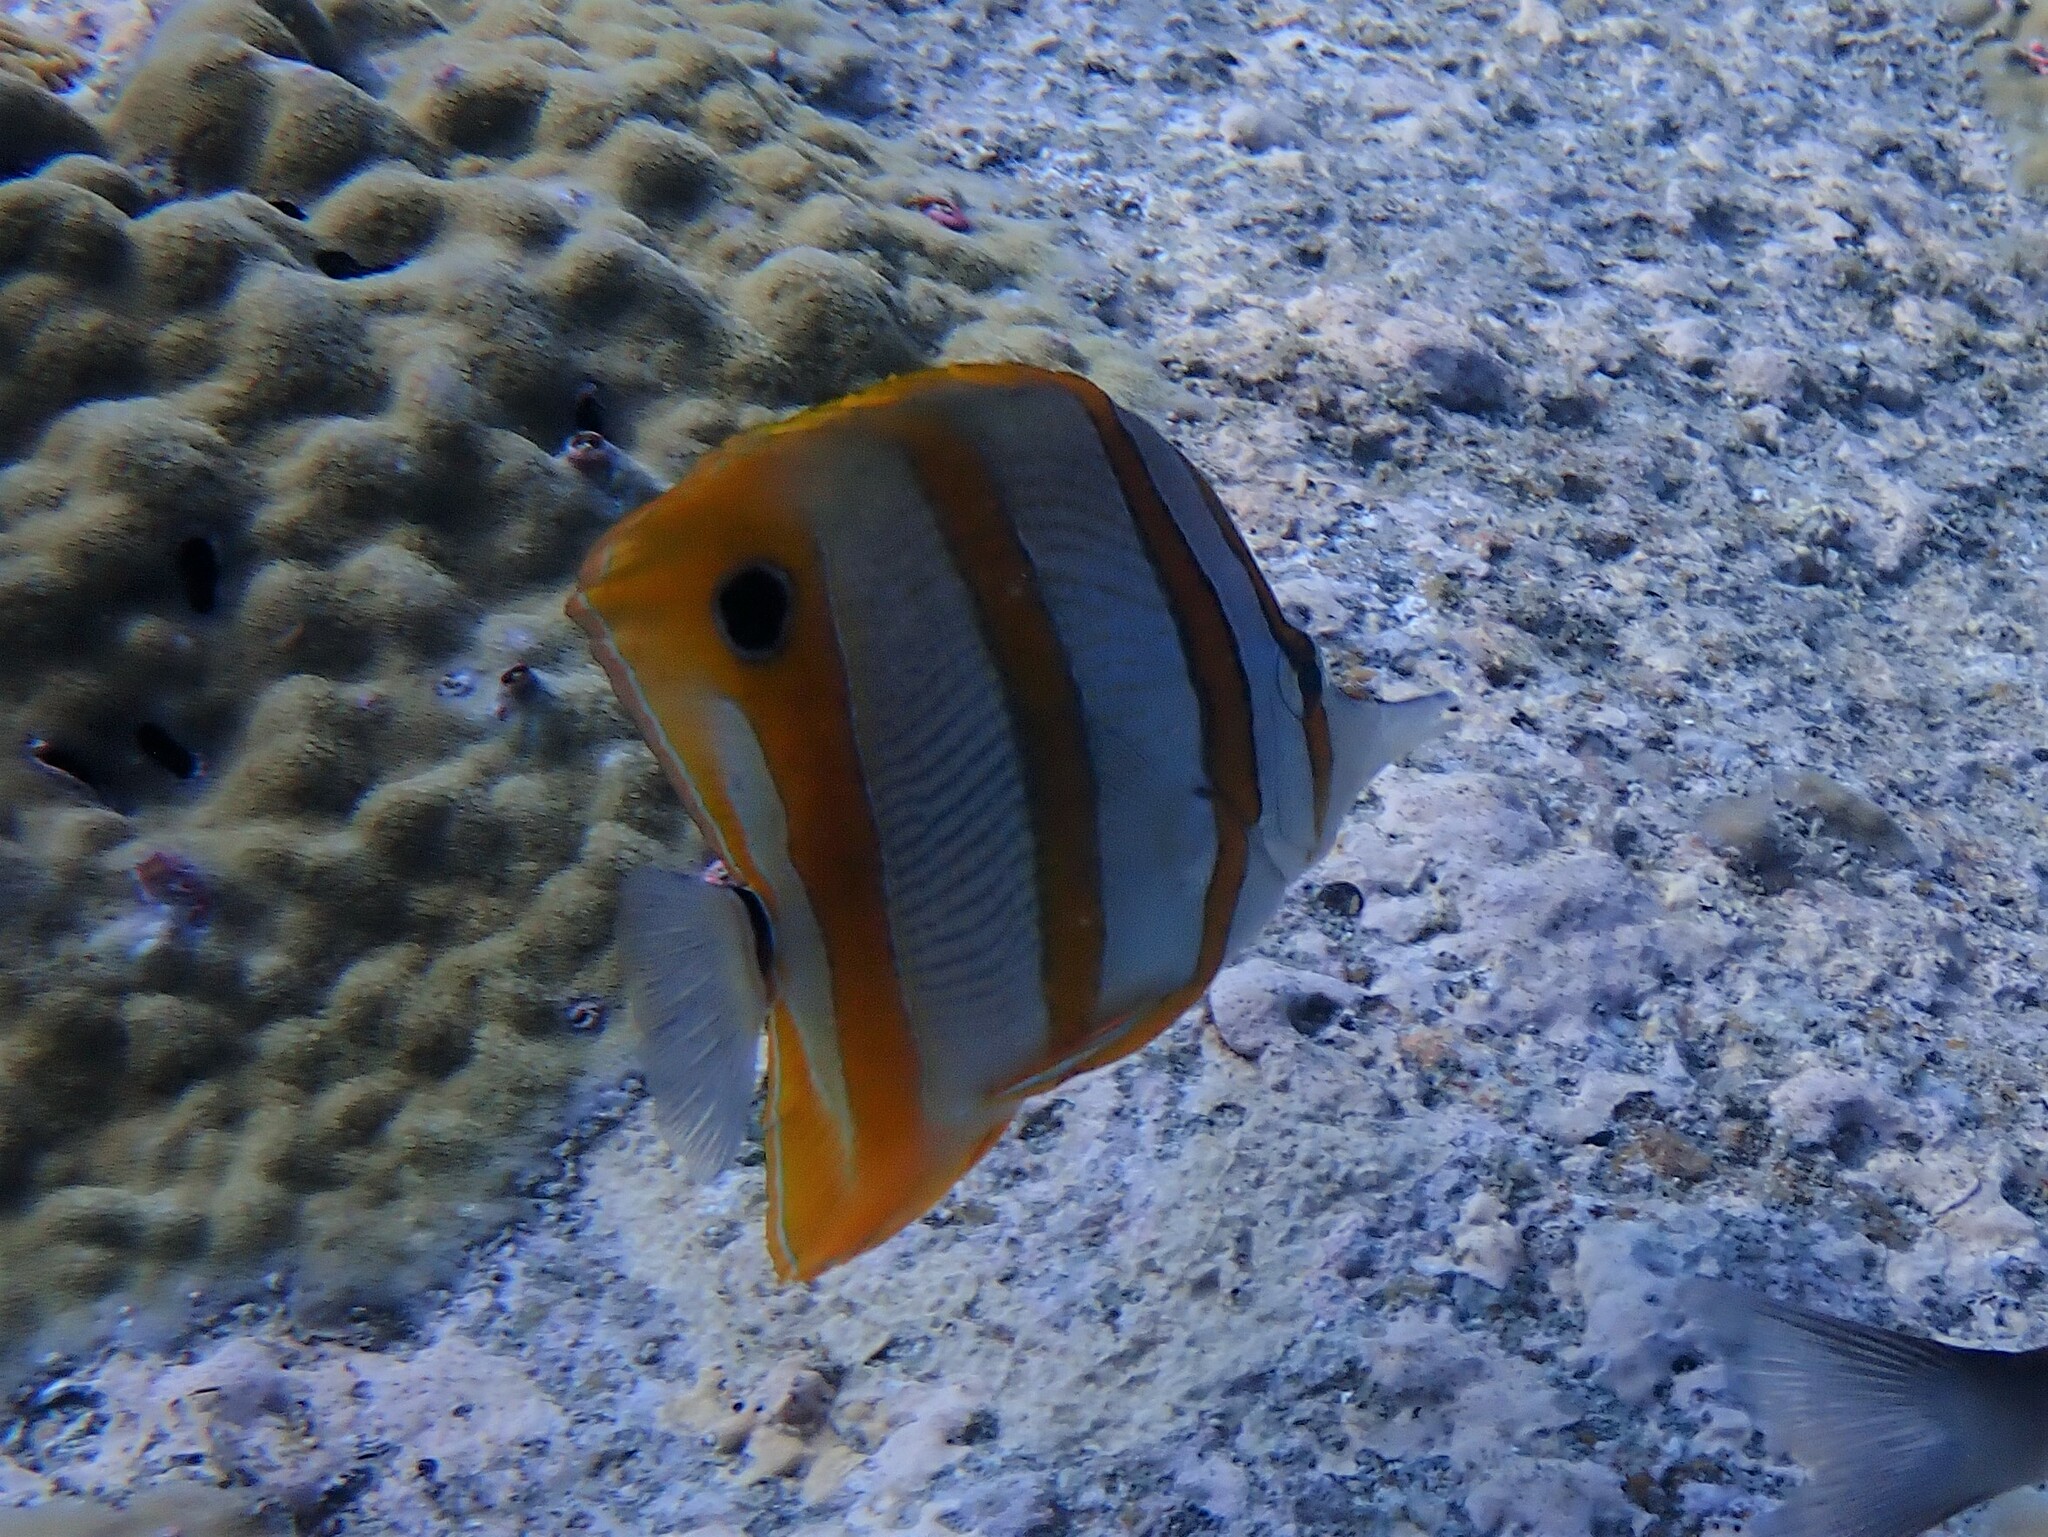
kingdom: Animalia
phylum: Chordata
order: Perciformes
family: Chaetodontidae
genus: Chelmon
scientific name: Chelmon rostratus
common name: Beaked butterflyfish
